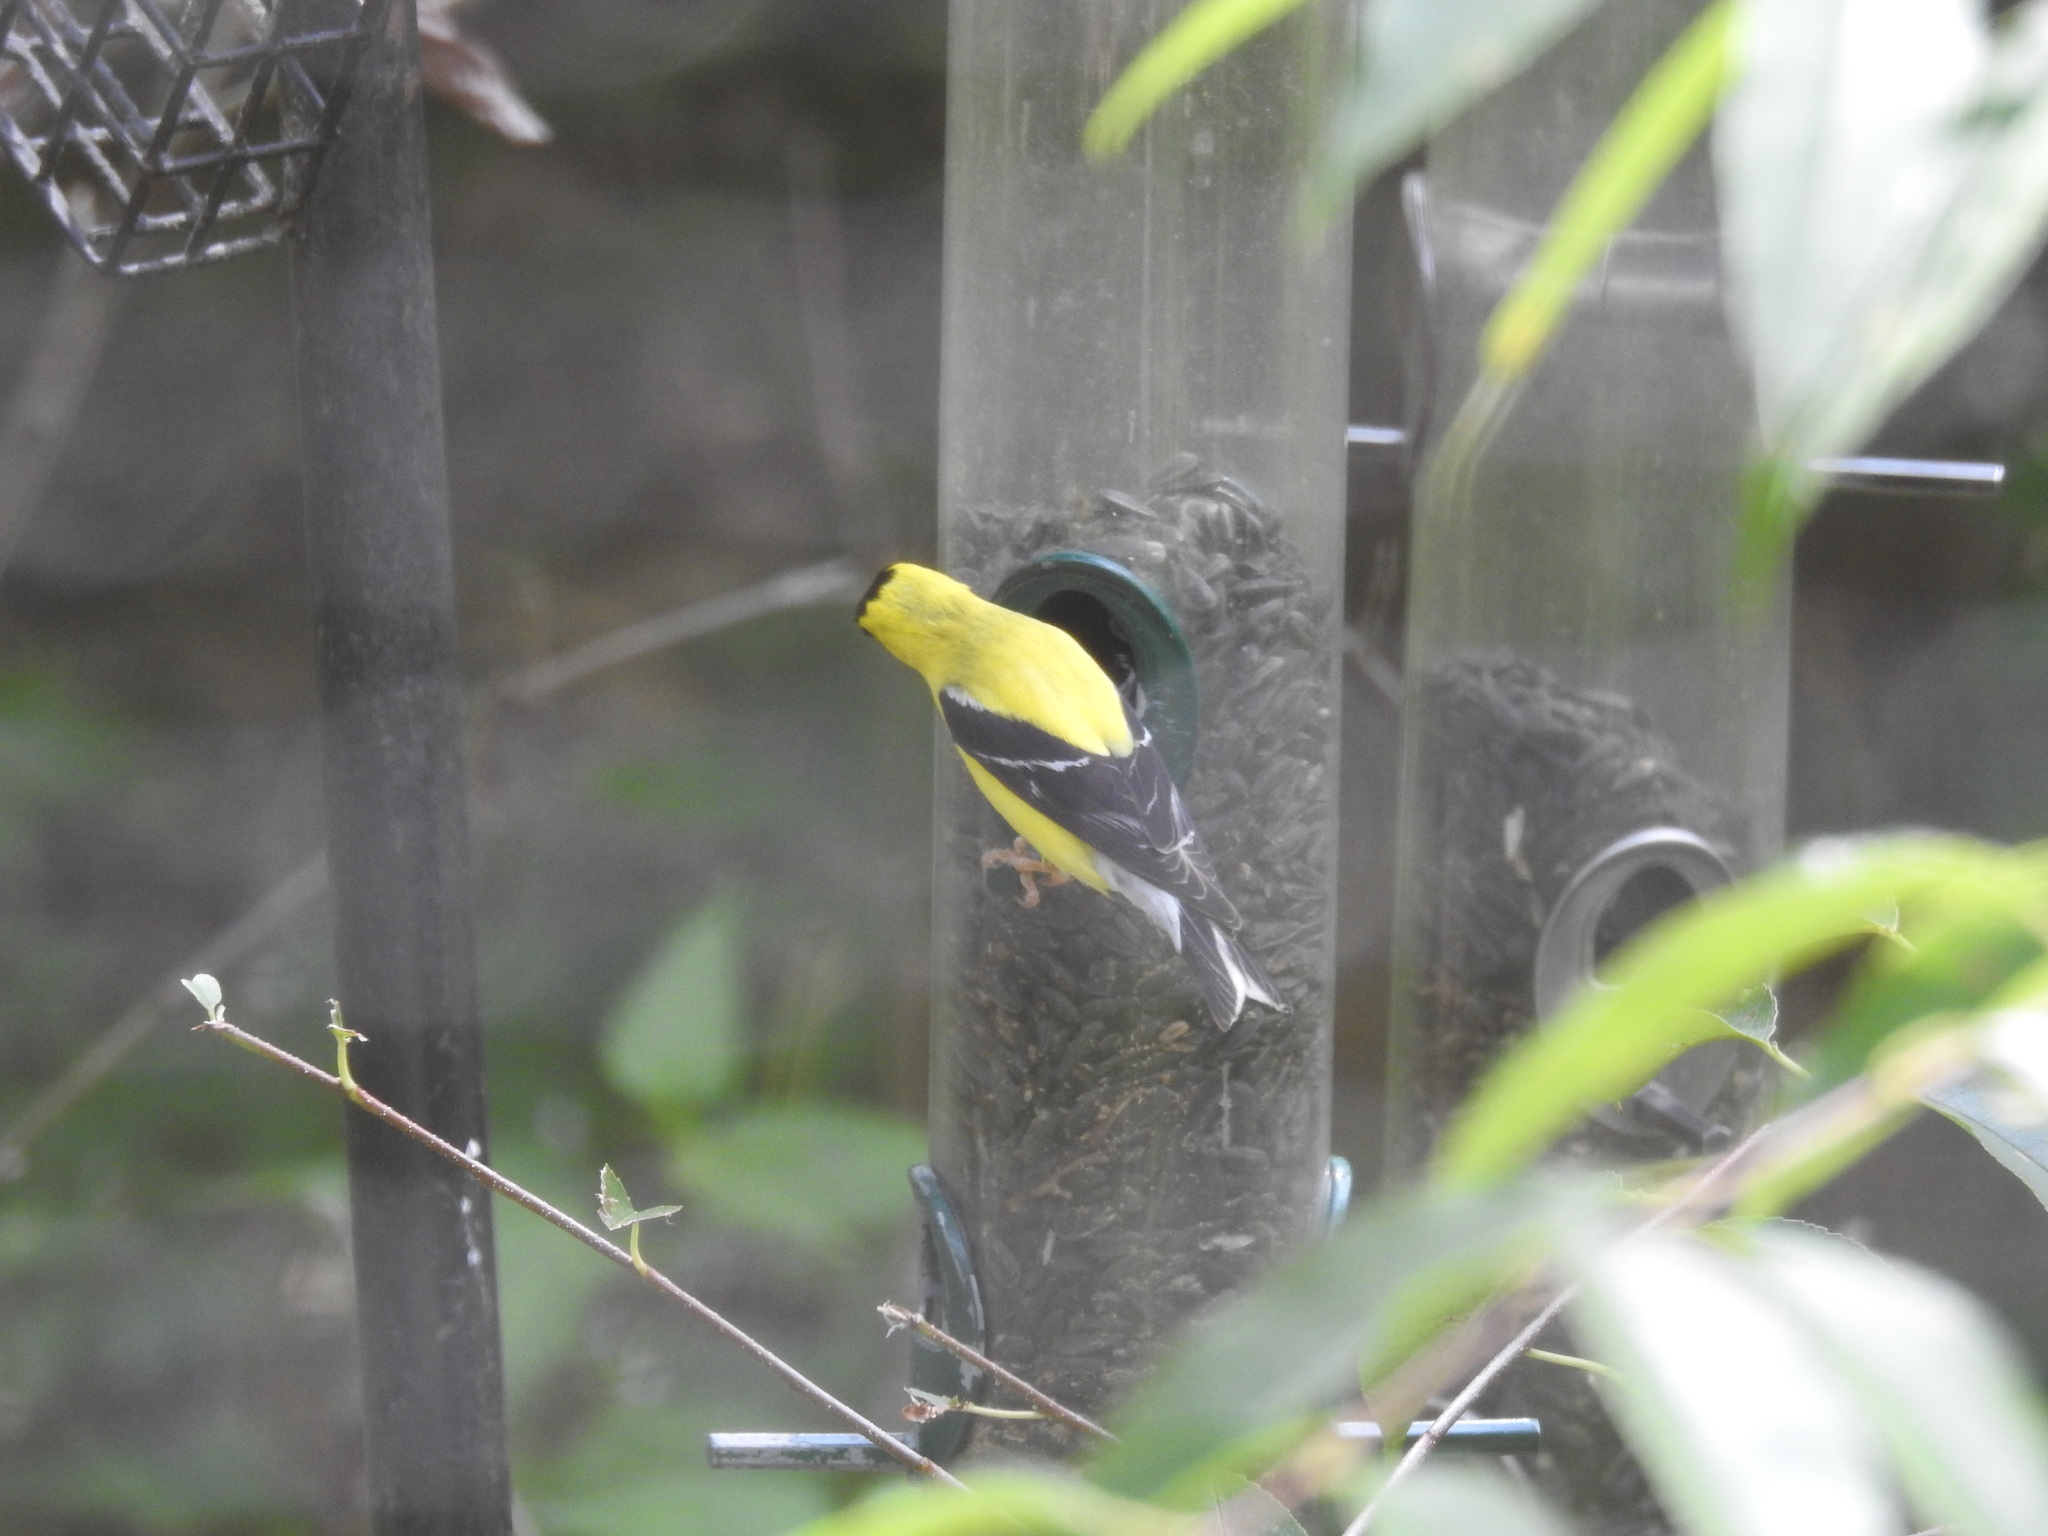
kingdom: Animalia
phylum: Chordata
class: Aves
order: Passeriformes
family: Fringillidae
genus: Spinus
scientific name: Spinus tristis
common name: American goldfinch
